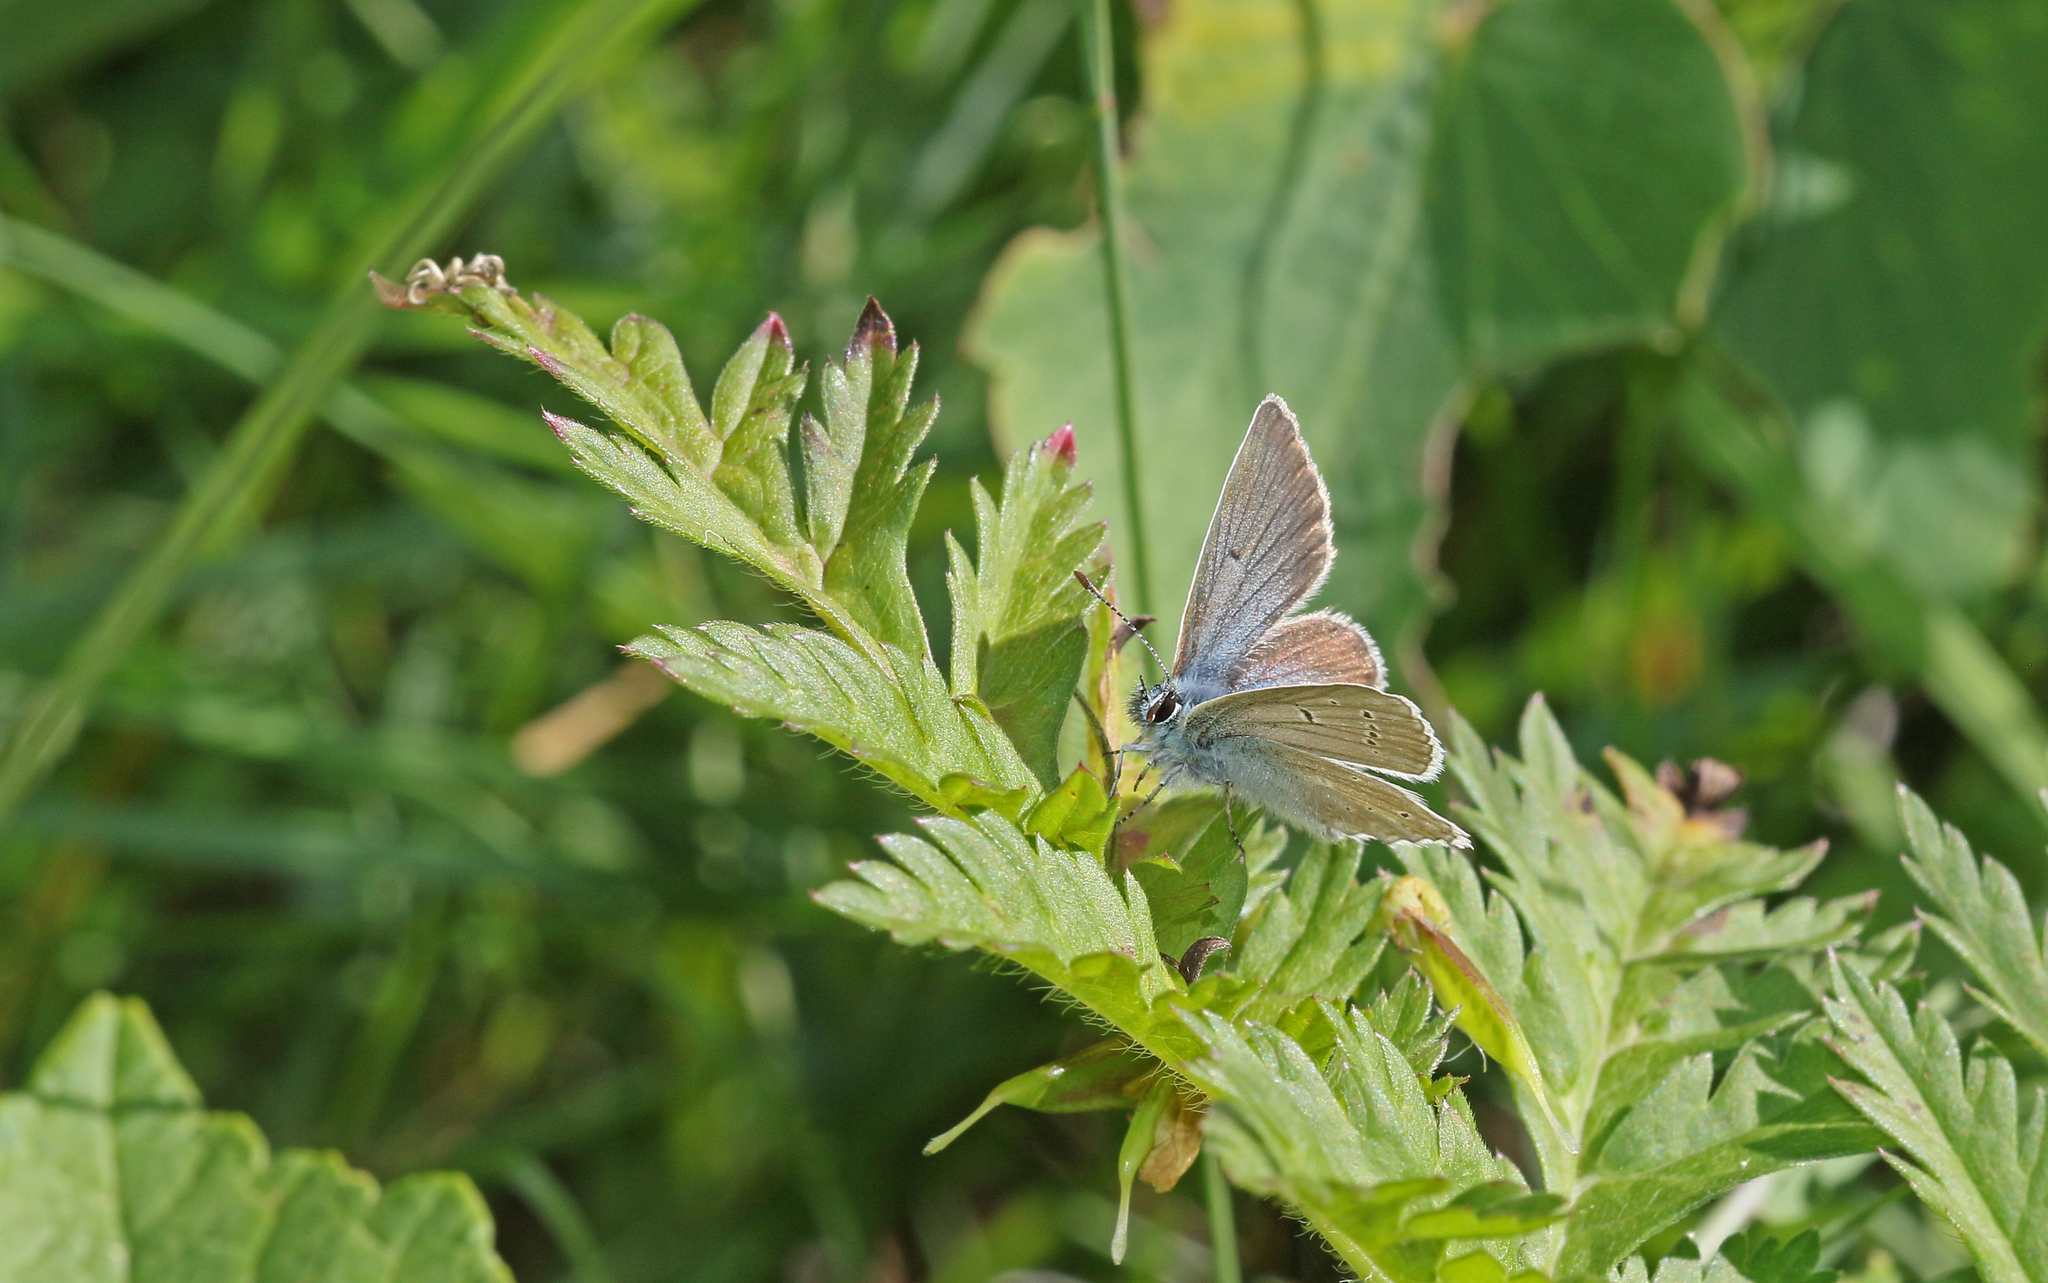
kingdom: Animalia
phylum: Arthropoda
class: Insecta
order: Lepidoptera
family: Lycaenidae
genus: Pseudoaricia
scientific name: Pseudoaricia nicias
